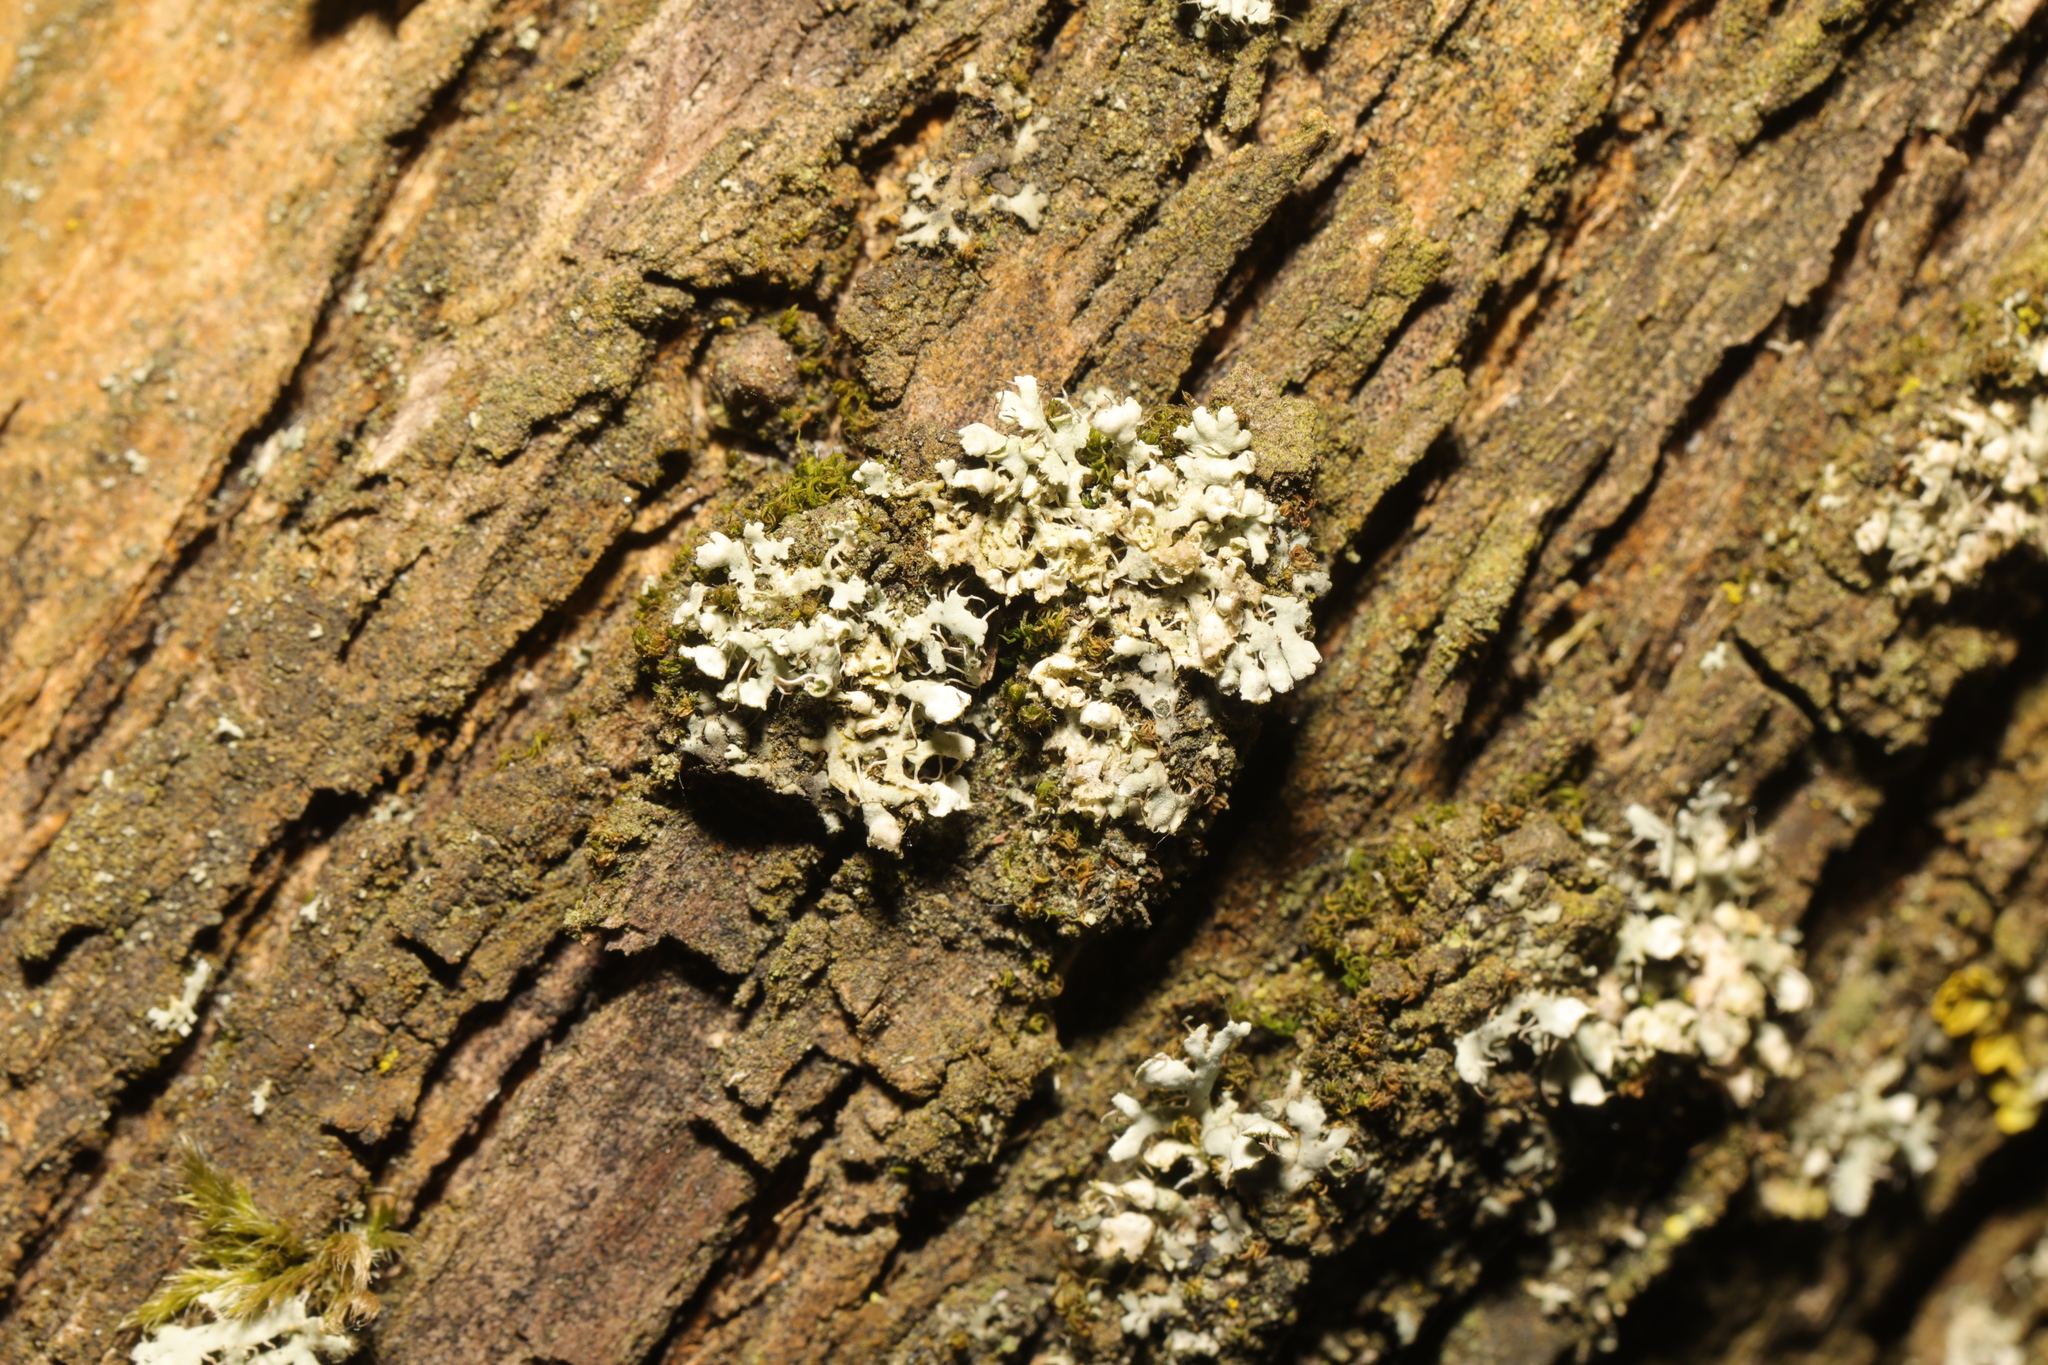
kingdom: Fungi
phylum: Ascomycota
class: Lecanoromycetes
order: Caliciales
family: Physciaceae
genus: Physcia
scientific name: Physcia adscendens
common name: Hooded rosette lichen
